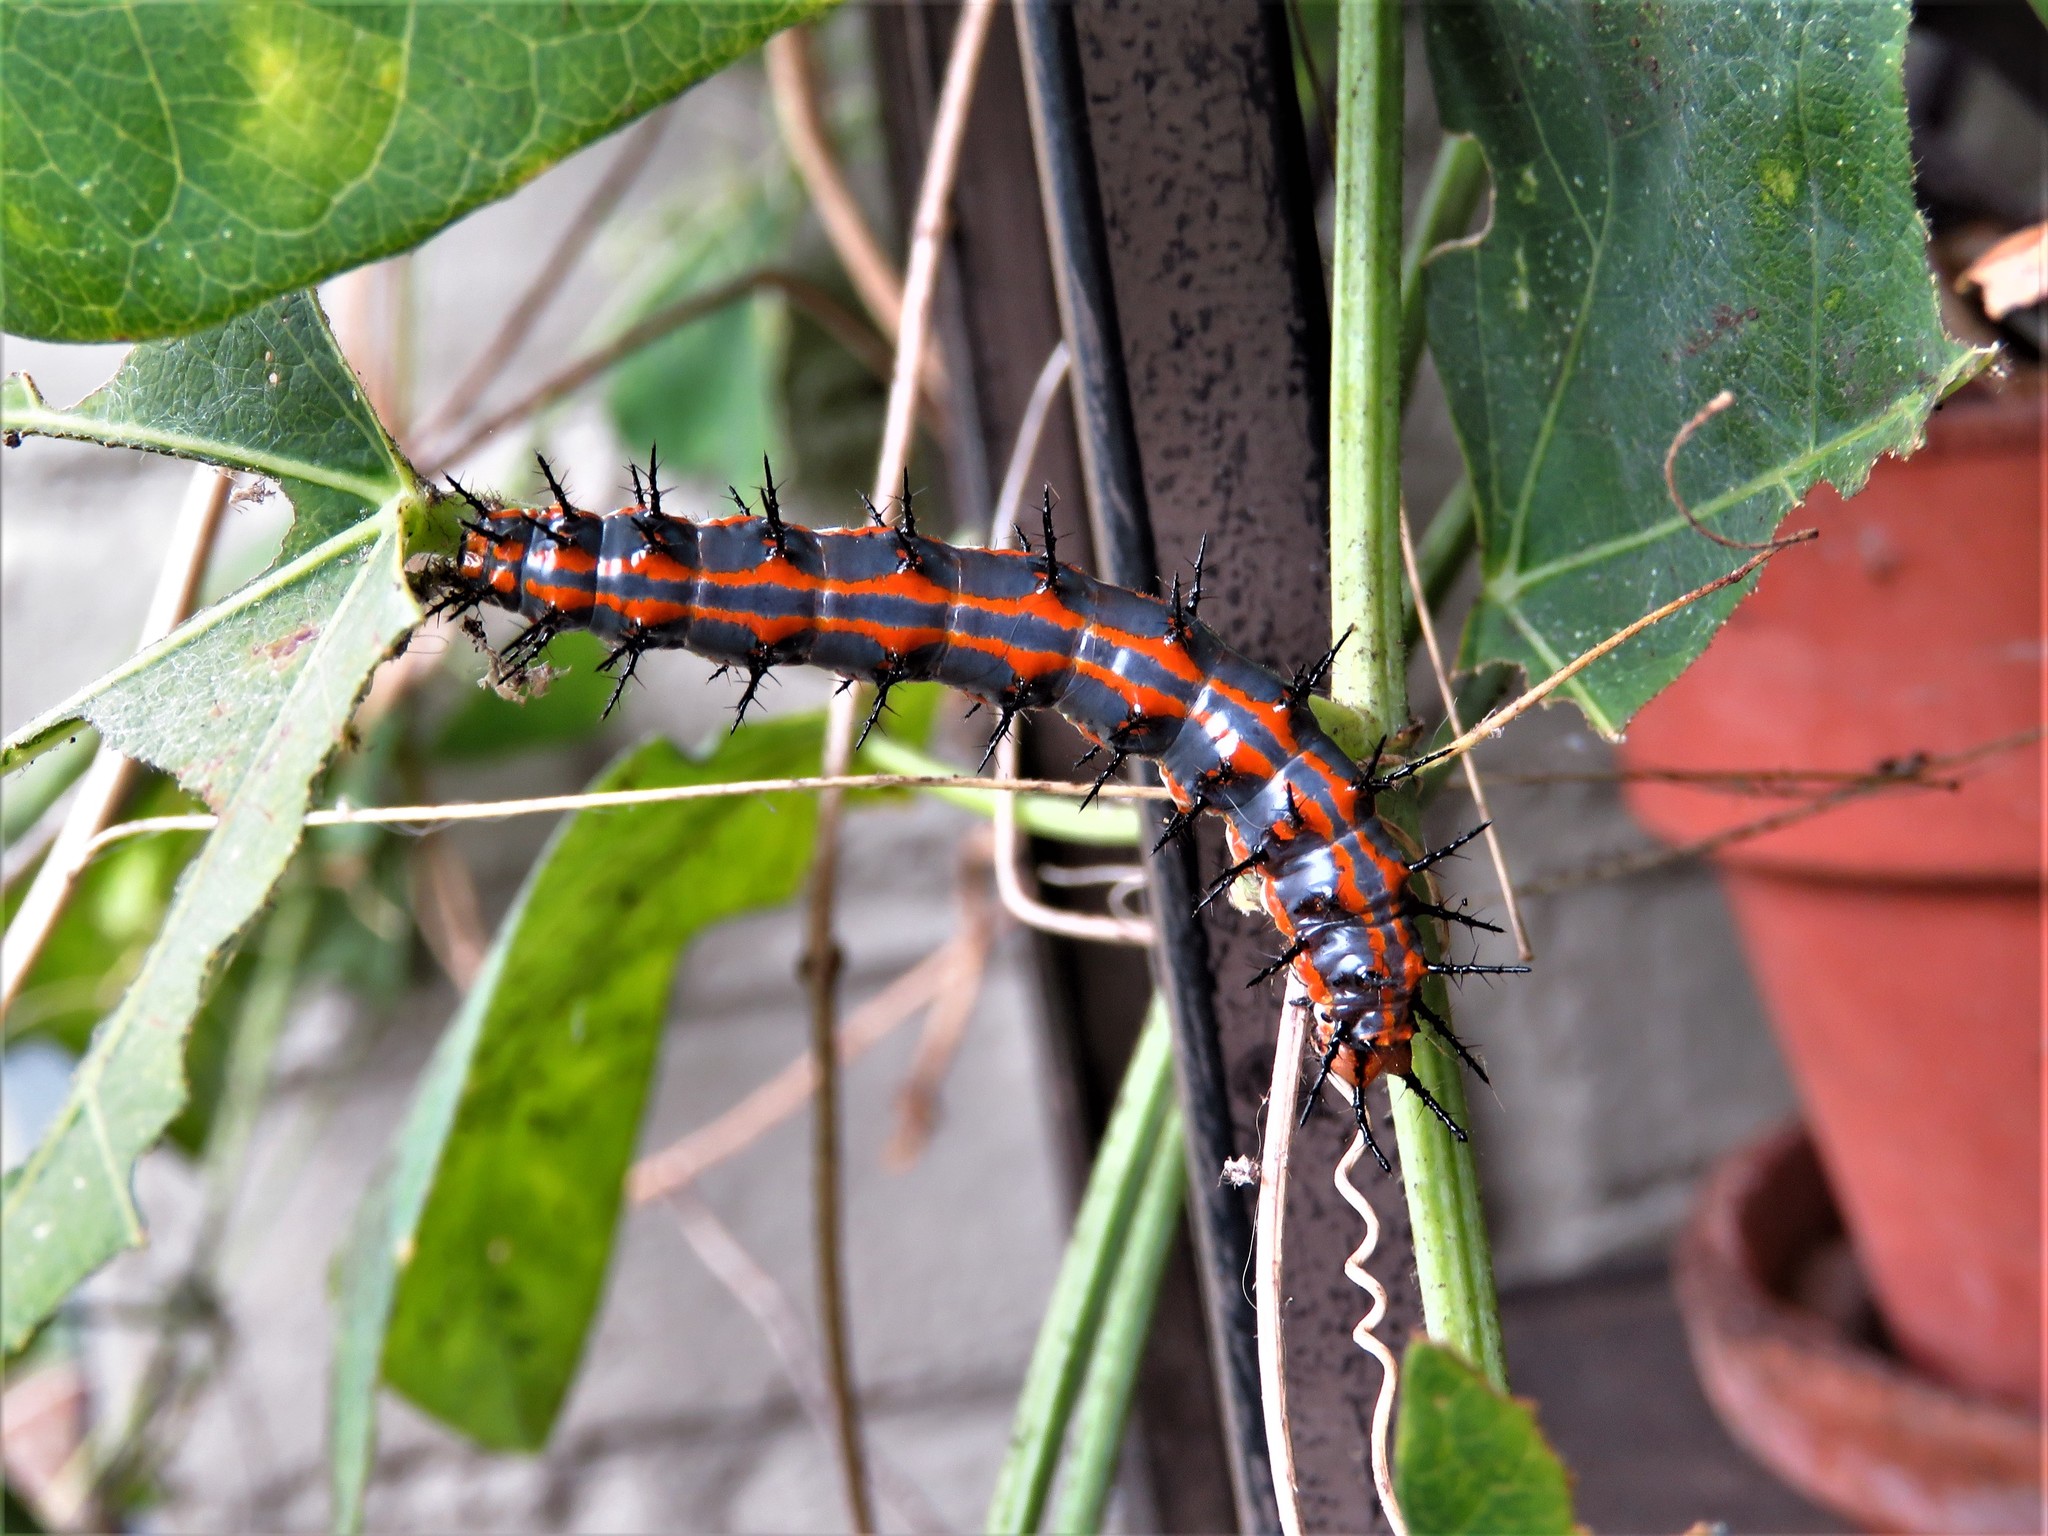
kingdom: Animalia
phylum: Arthropoda
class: Insecta
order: Lepidoptera
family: Nymphalidae
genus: Dione
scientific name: Dione vanillae
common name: Gulf fritillary
